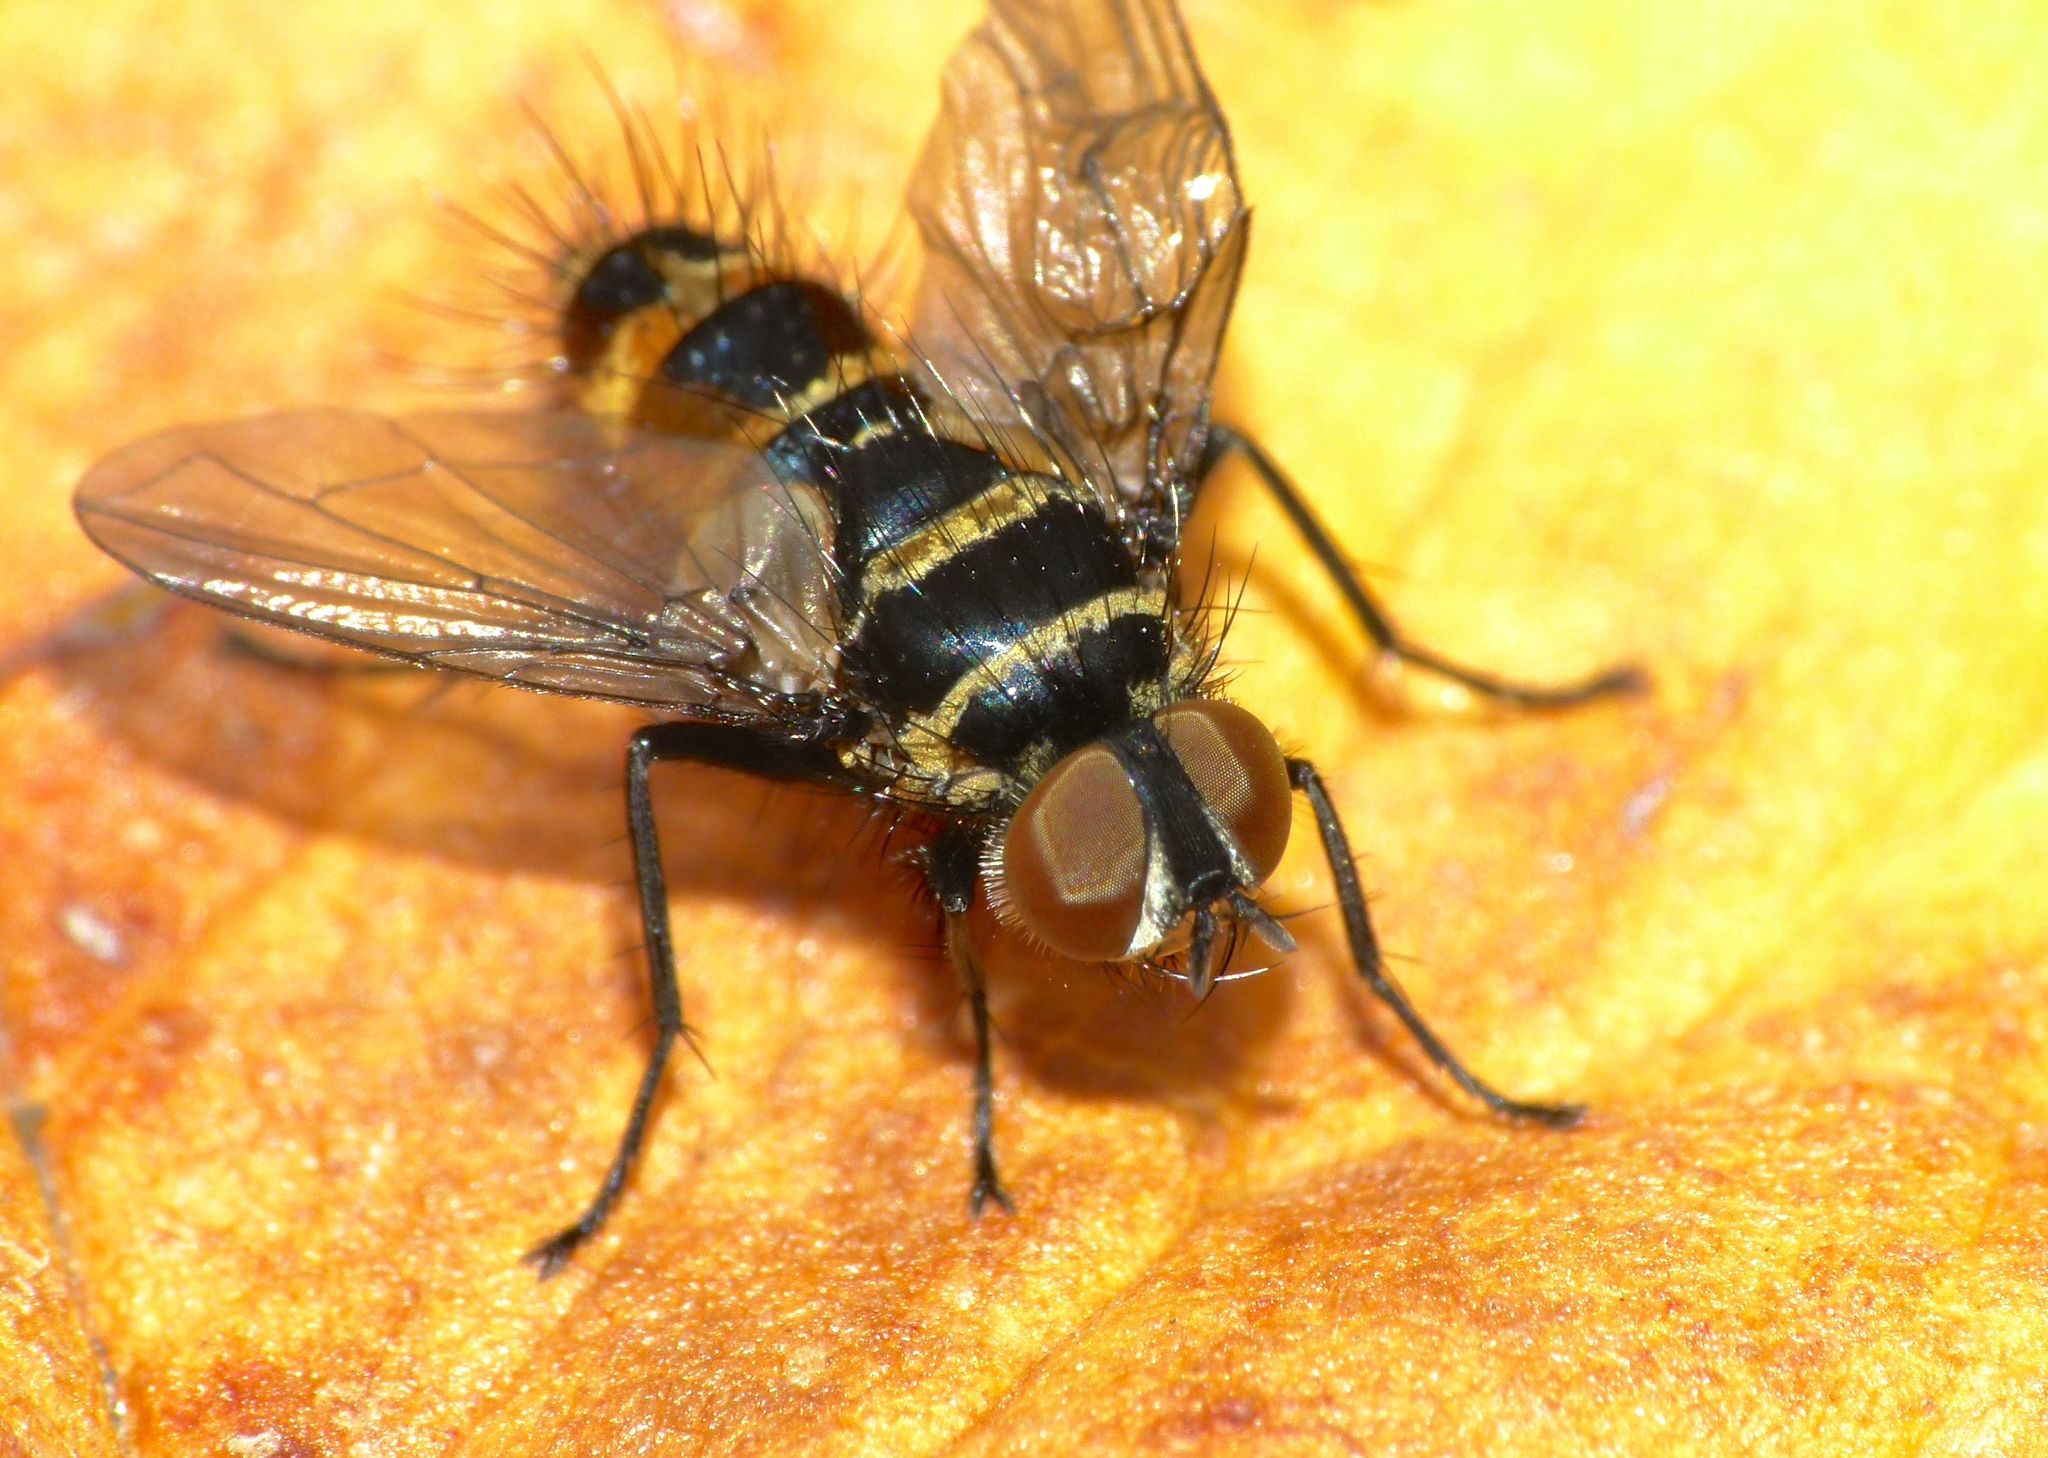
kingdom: Animalia
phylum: Arthropoda
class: Insecta
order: Diptera
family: Tachinidae
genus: Trigonospila
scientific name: Trigonospila brevifacies
